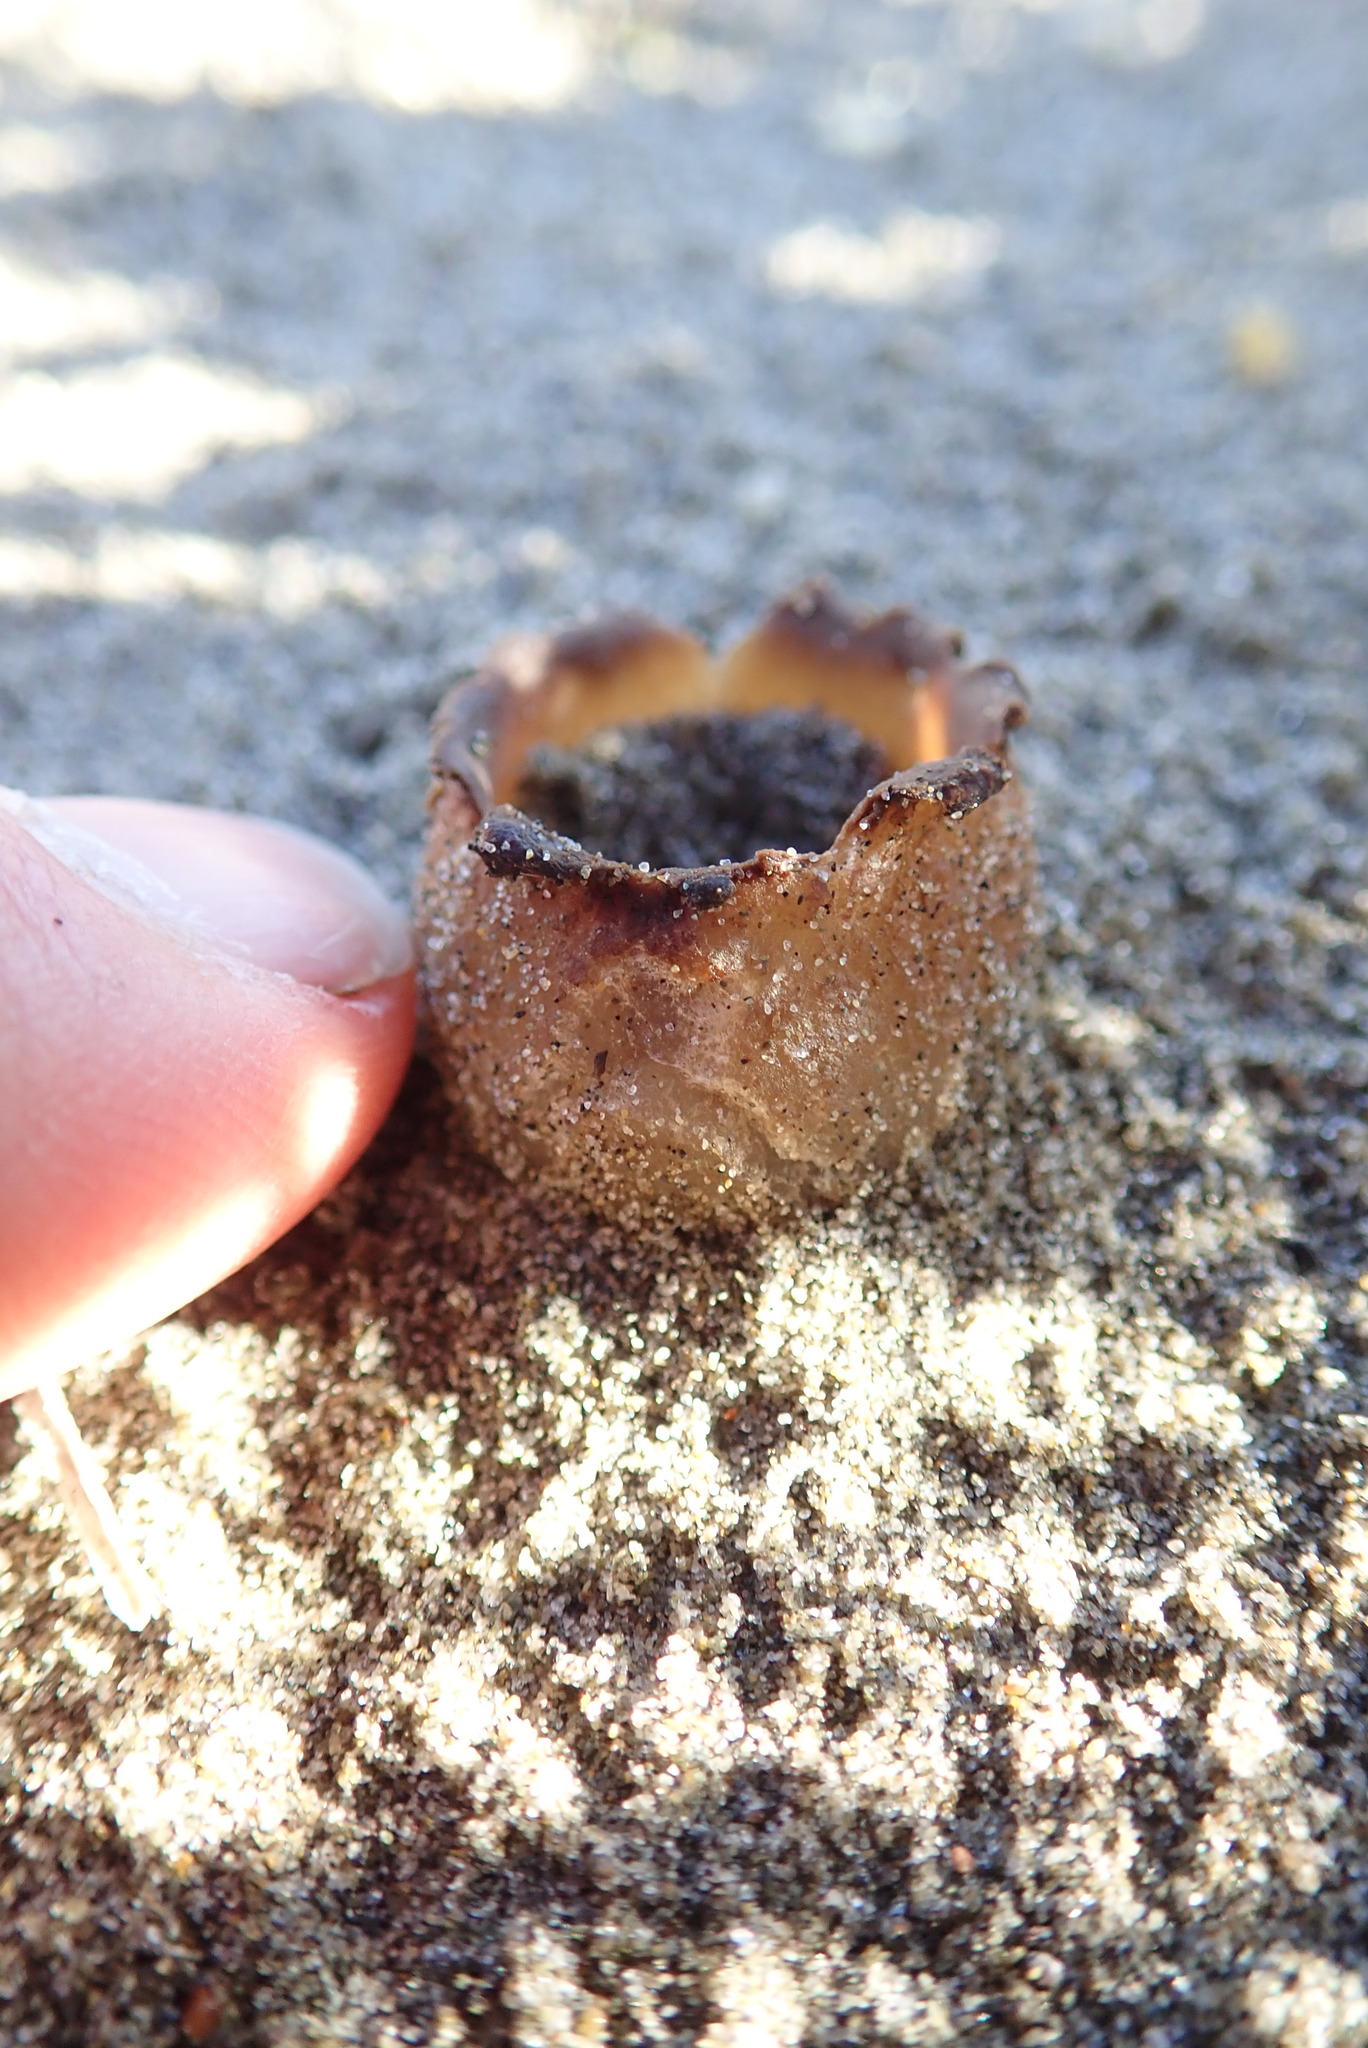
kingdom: Fungi
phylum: Ascomycota
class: Pezizomycetes
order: Pezizales
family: Pezizaceae
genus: Peziza
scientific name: Peziza oceanica
